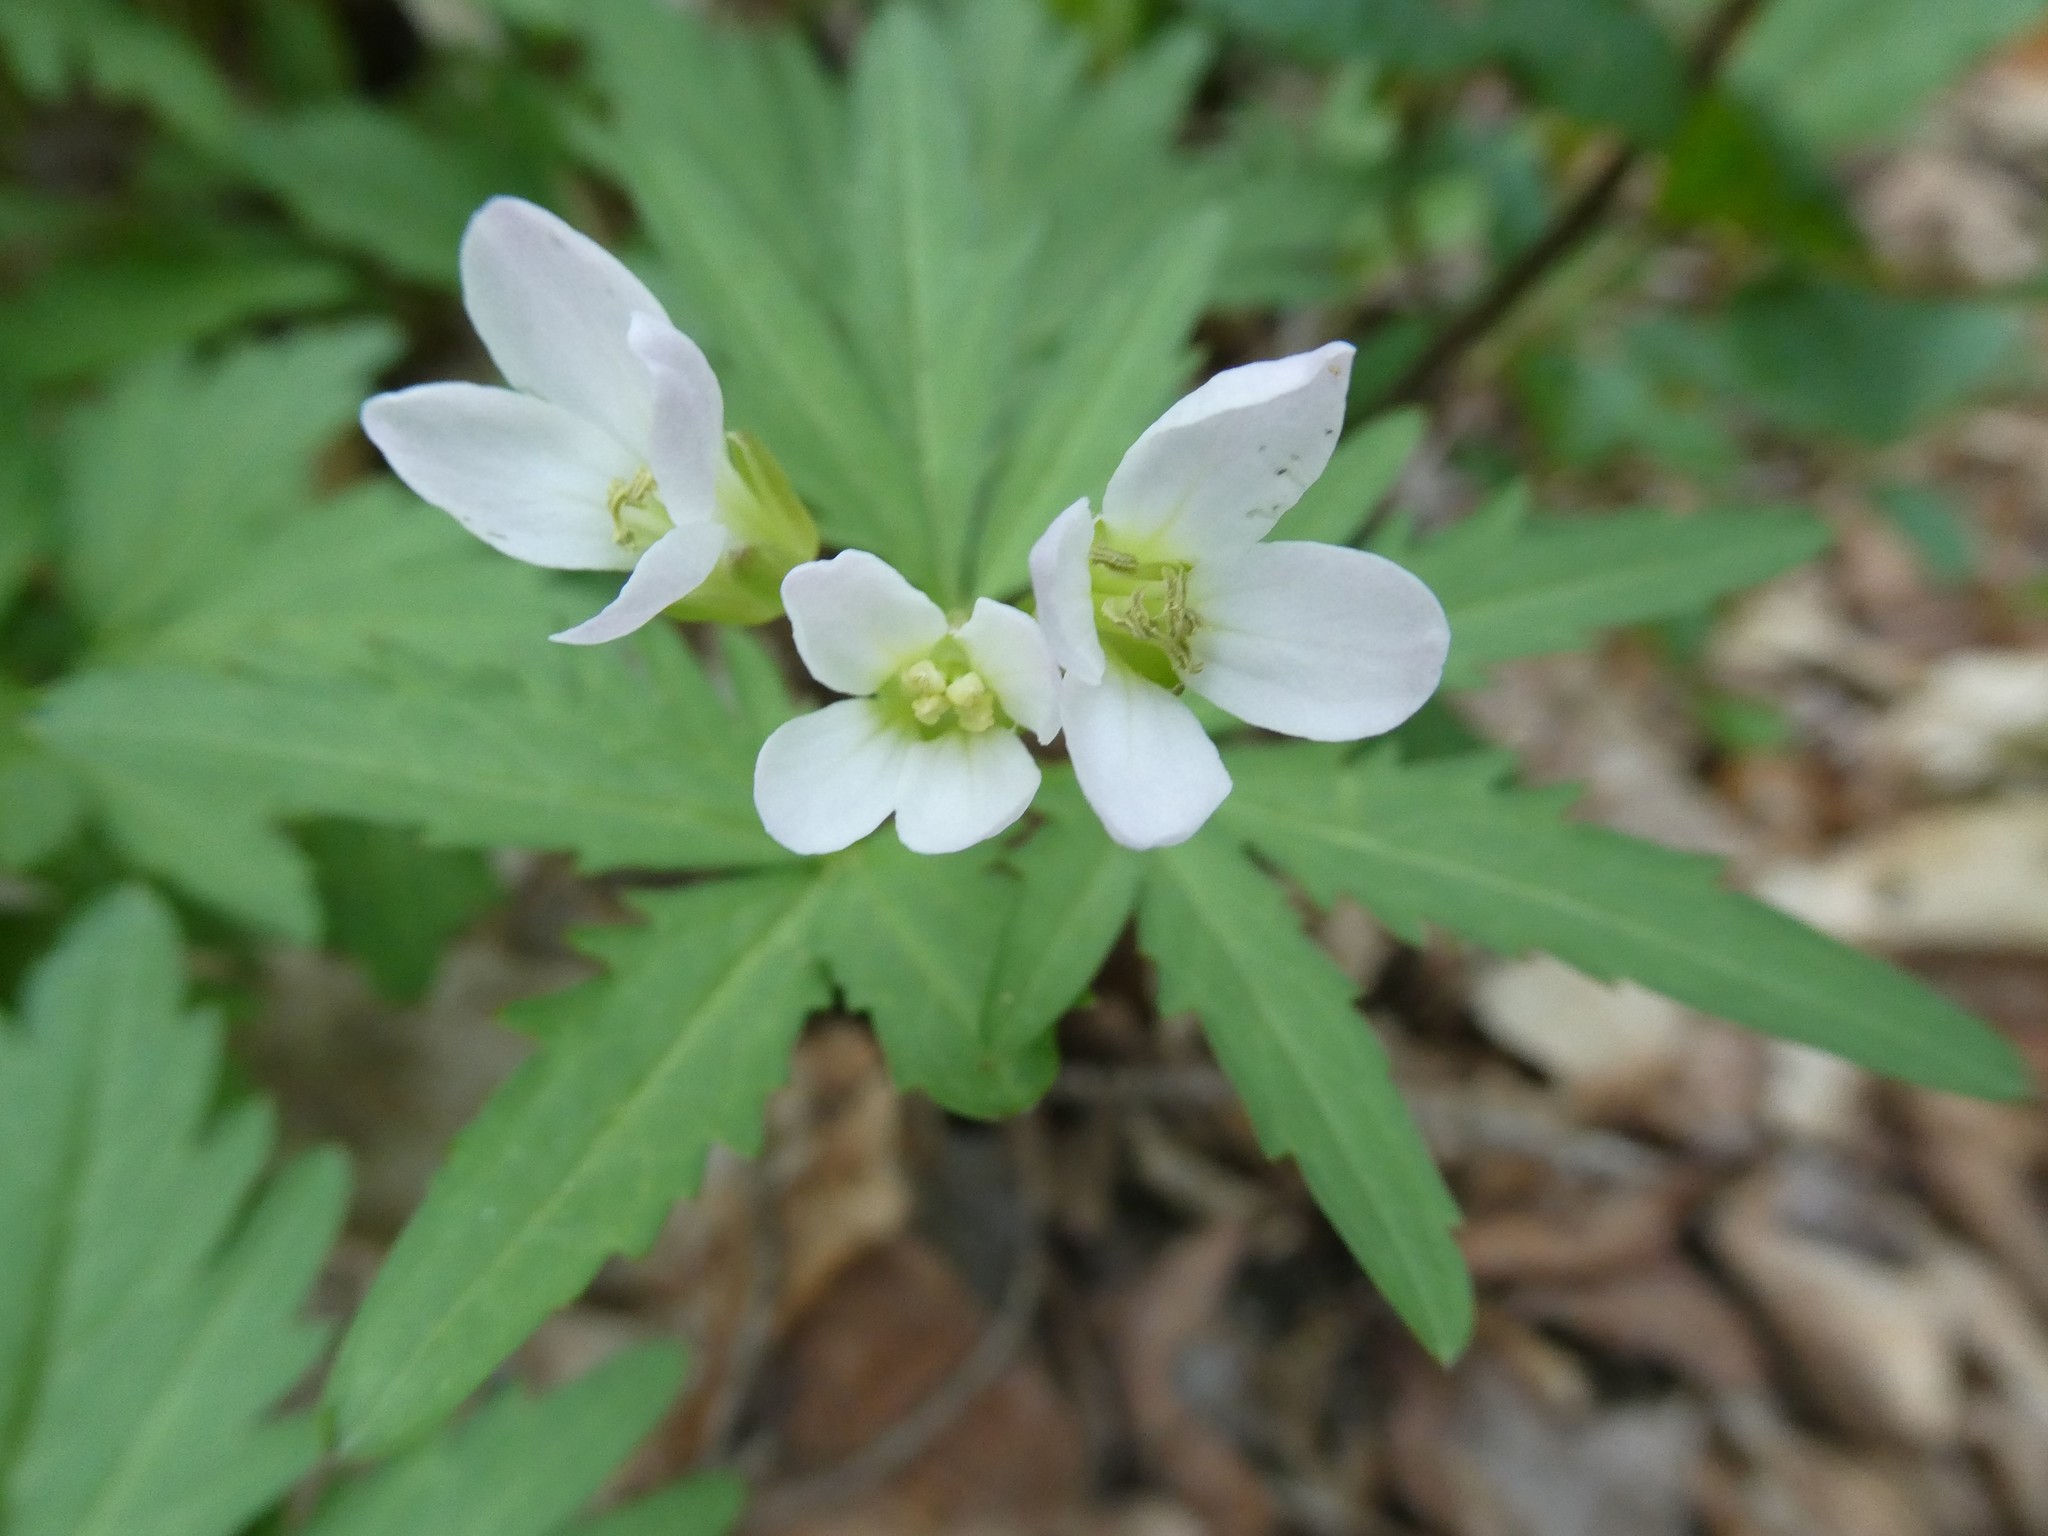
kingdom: Plantae
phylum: Tracheophyta
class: Magnoliopsida
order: Brassicales
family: Brassicaceae
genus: Cardamine
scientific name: Cardamine concatenata
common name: Cut-leaf toothcup
